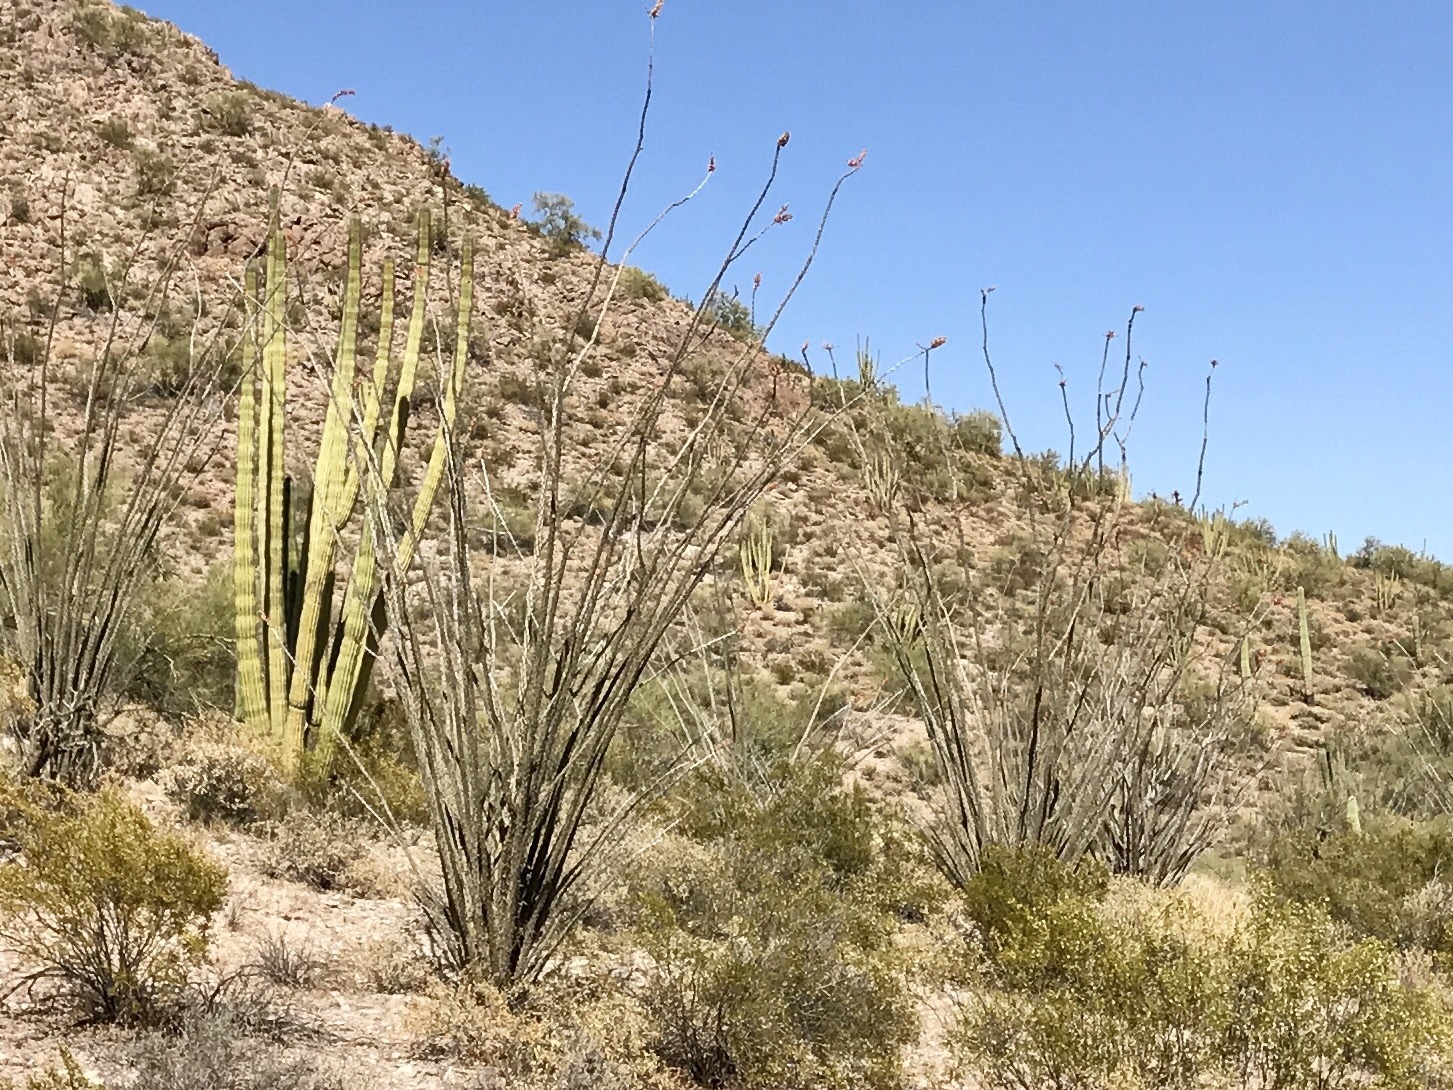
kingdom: Plantae
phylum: Tracheophyta
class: Magnoliopsida
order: Ericales
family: Fouquieriaceae
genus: Fouquieria
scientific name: Fouquieria splendens
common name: Vine-cactus
